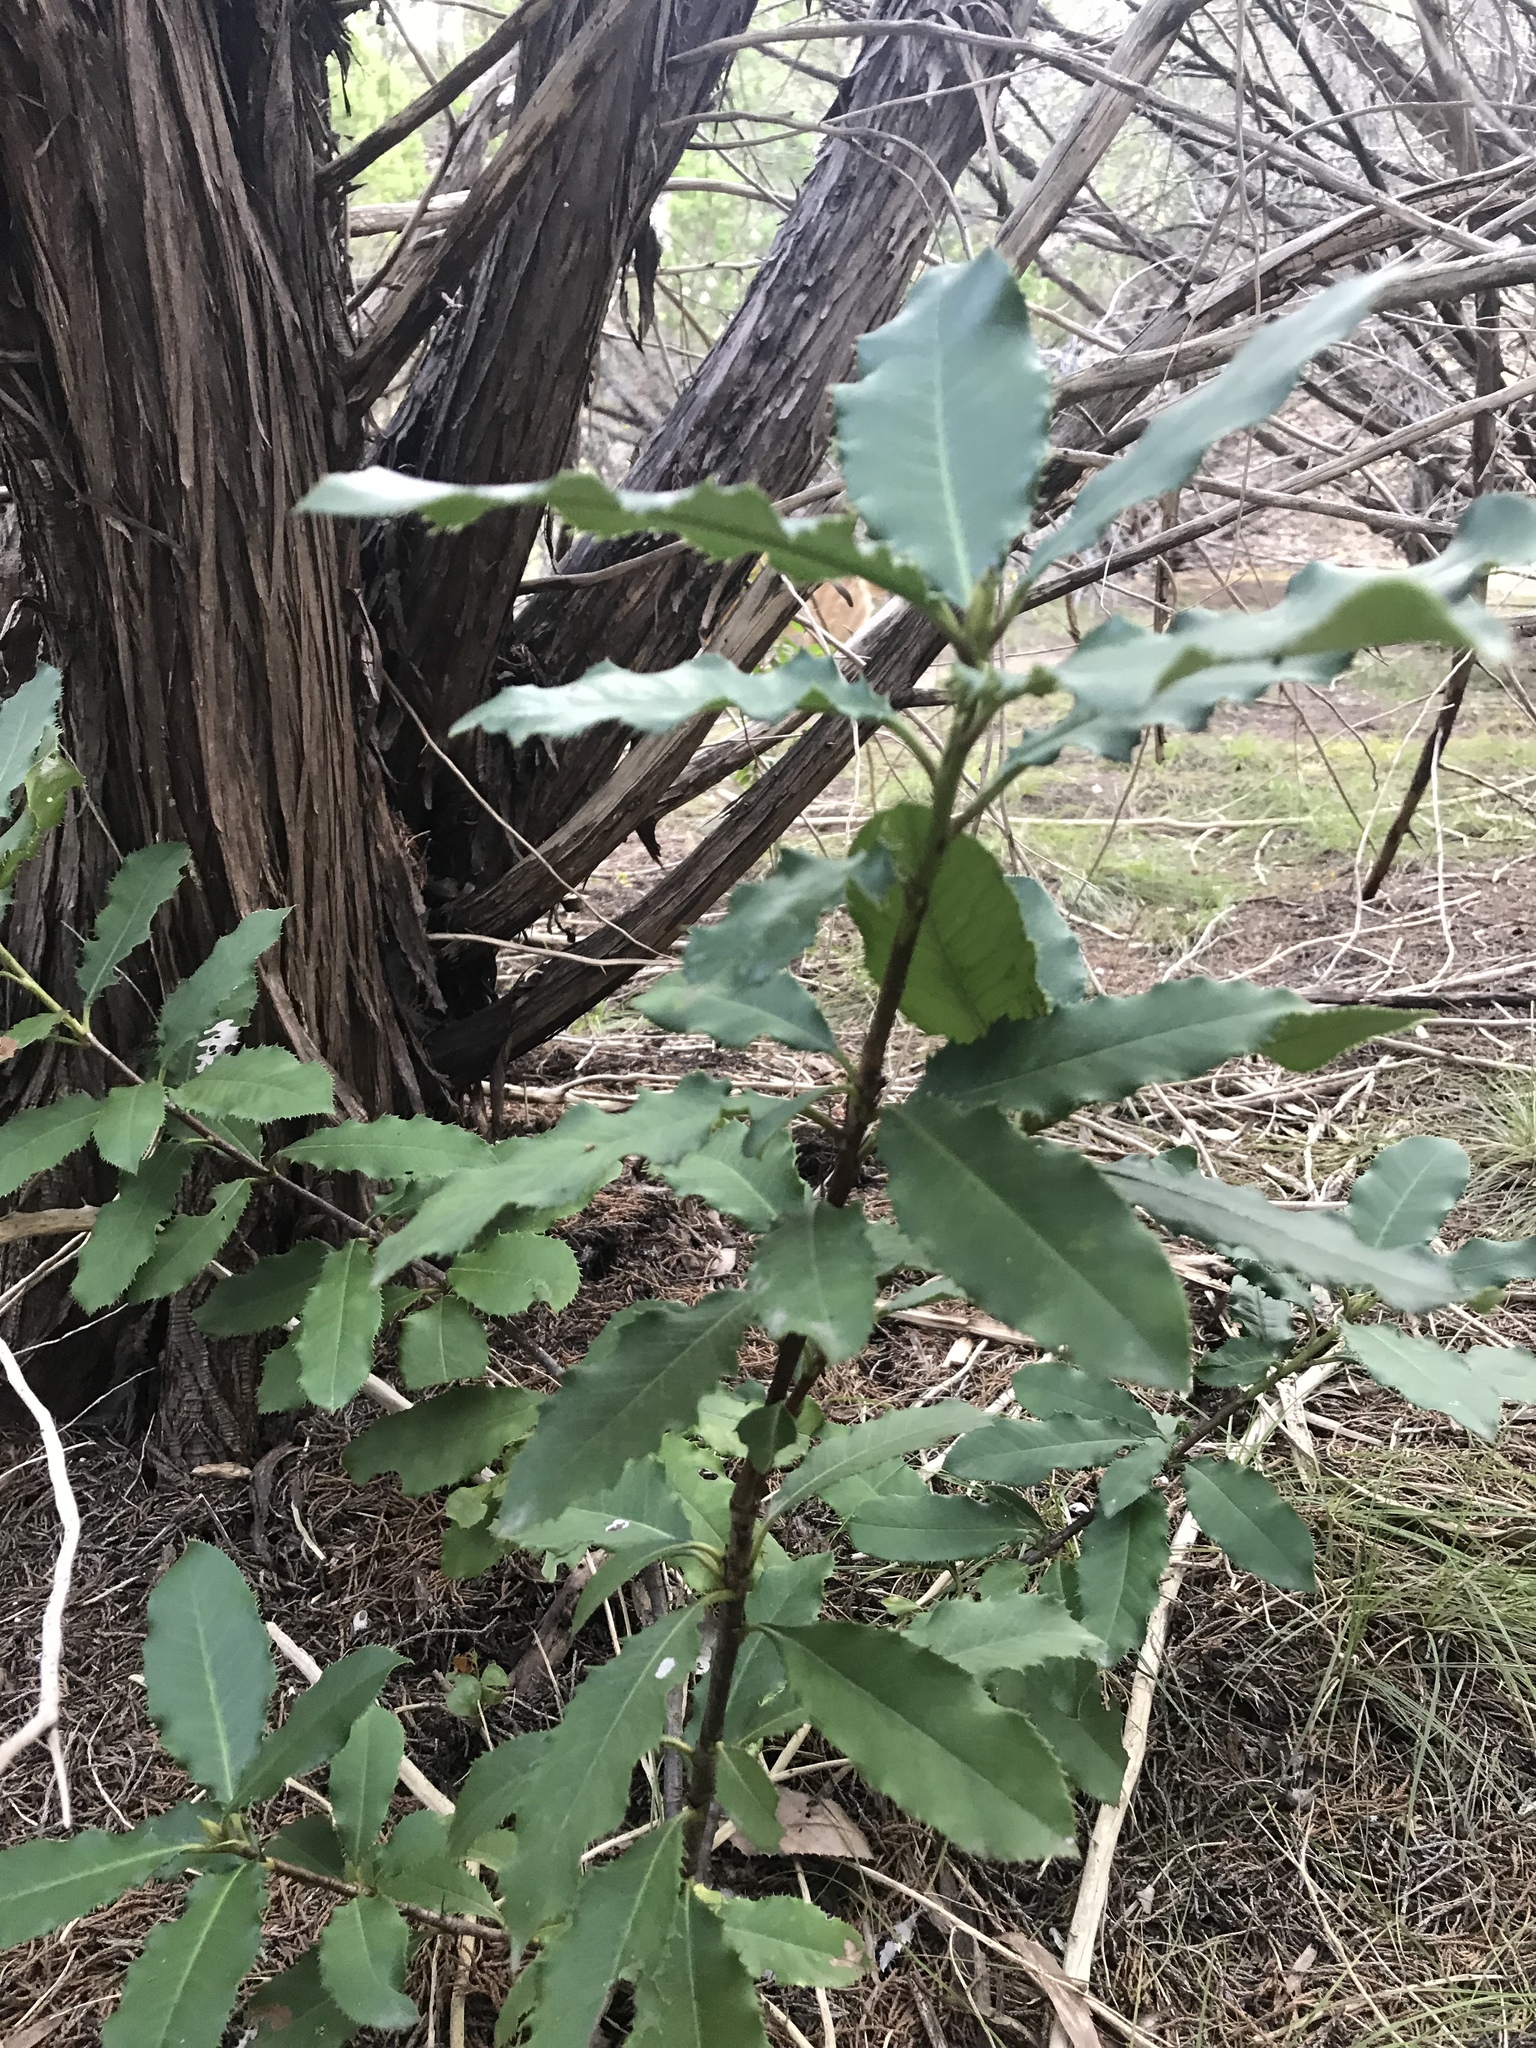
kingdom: Plantae
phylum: Tracheophyta
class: Magnoliopsida
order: Rosales
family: Rosaceae
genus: Photinia
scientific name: Photinia serratifolia
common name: Taiwanese photinia
